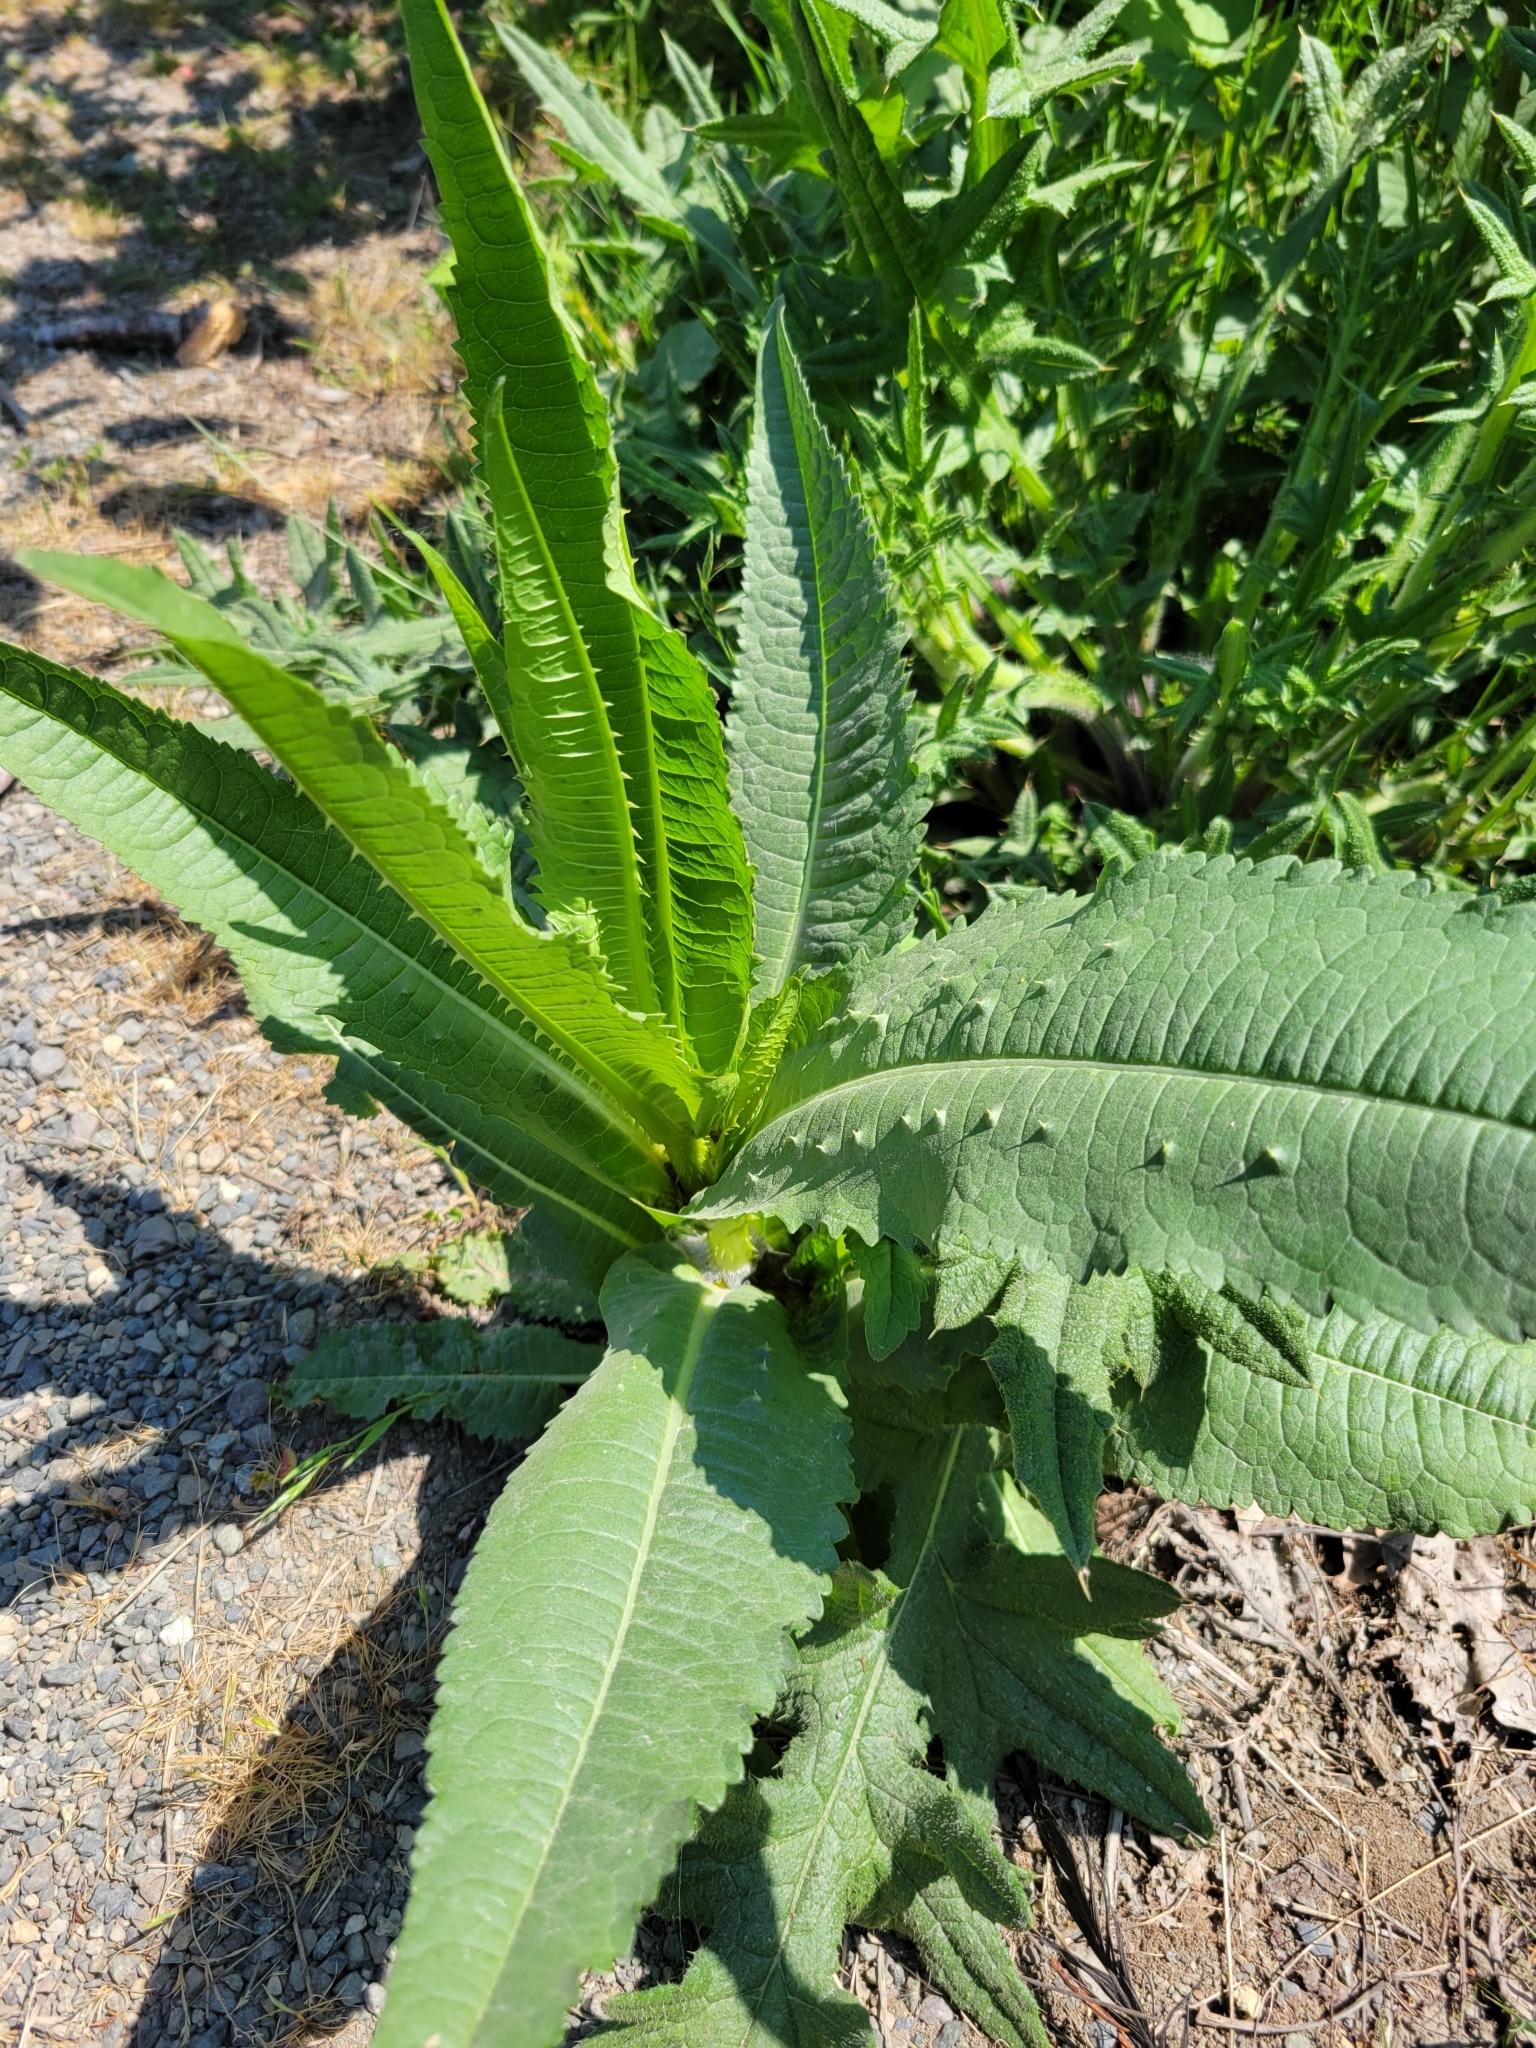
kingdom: Plantae
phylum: Tracheophyta
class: Magnoliopsida
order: Dipsacales
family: Caprifoliaceae
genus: Dipsacus
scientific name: Dipsacus fullonum
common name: Teasel
